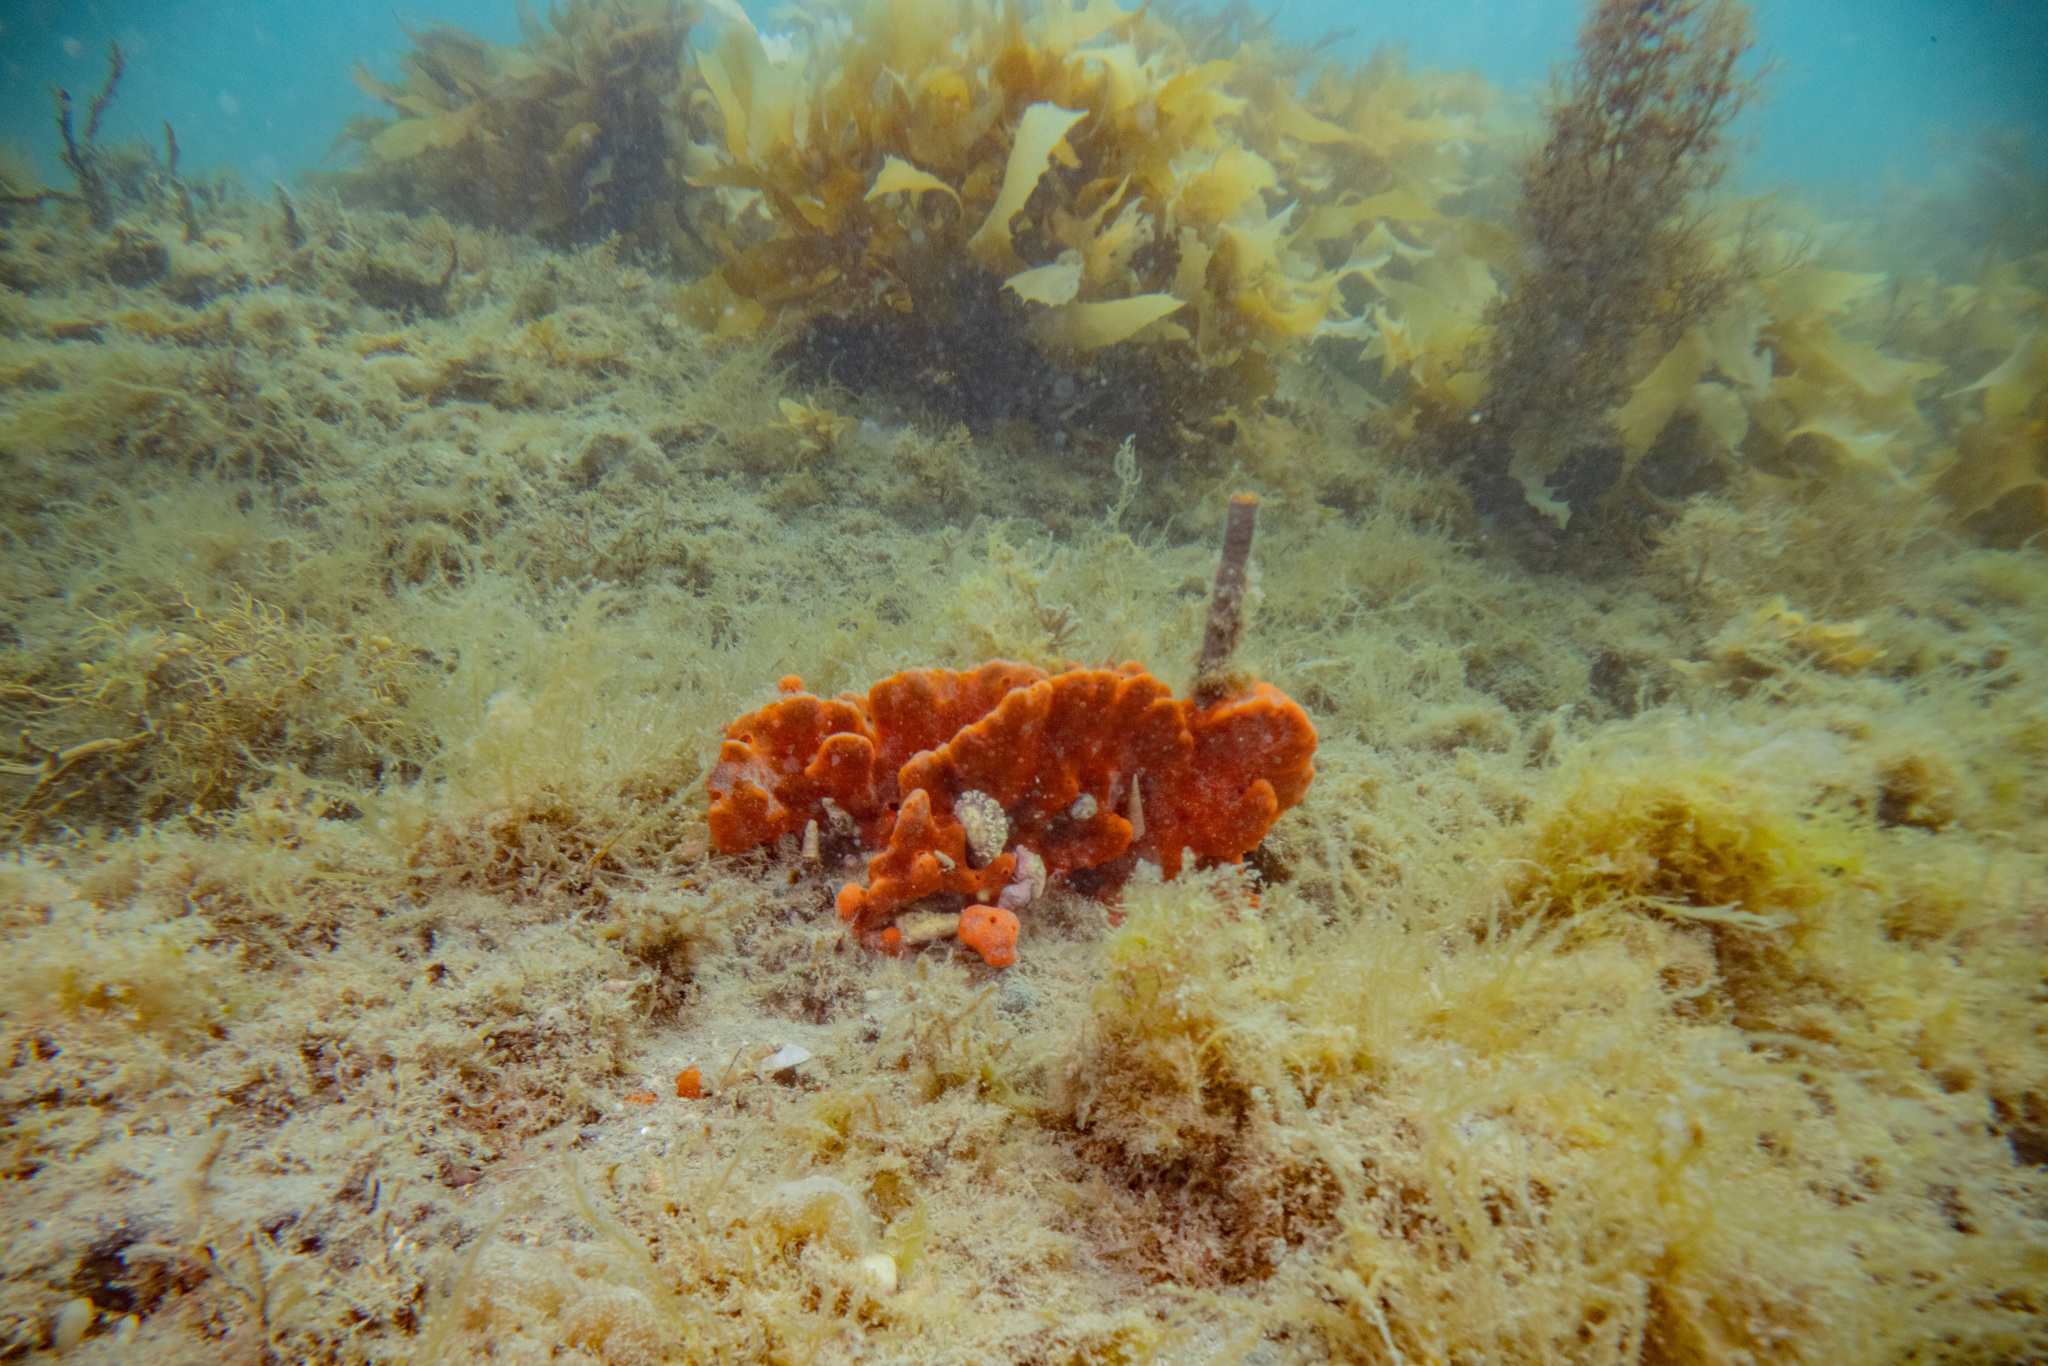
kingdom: Animalia
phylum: Porifera
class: Demospongiae
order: Poecilosclerida
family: Crellidae
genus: Crella
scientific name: Crella incrustans
